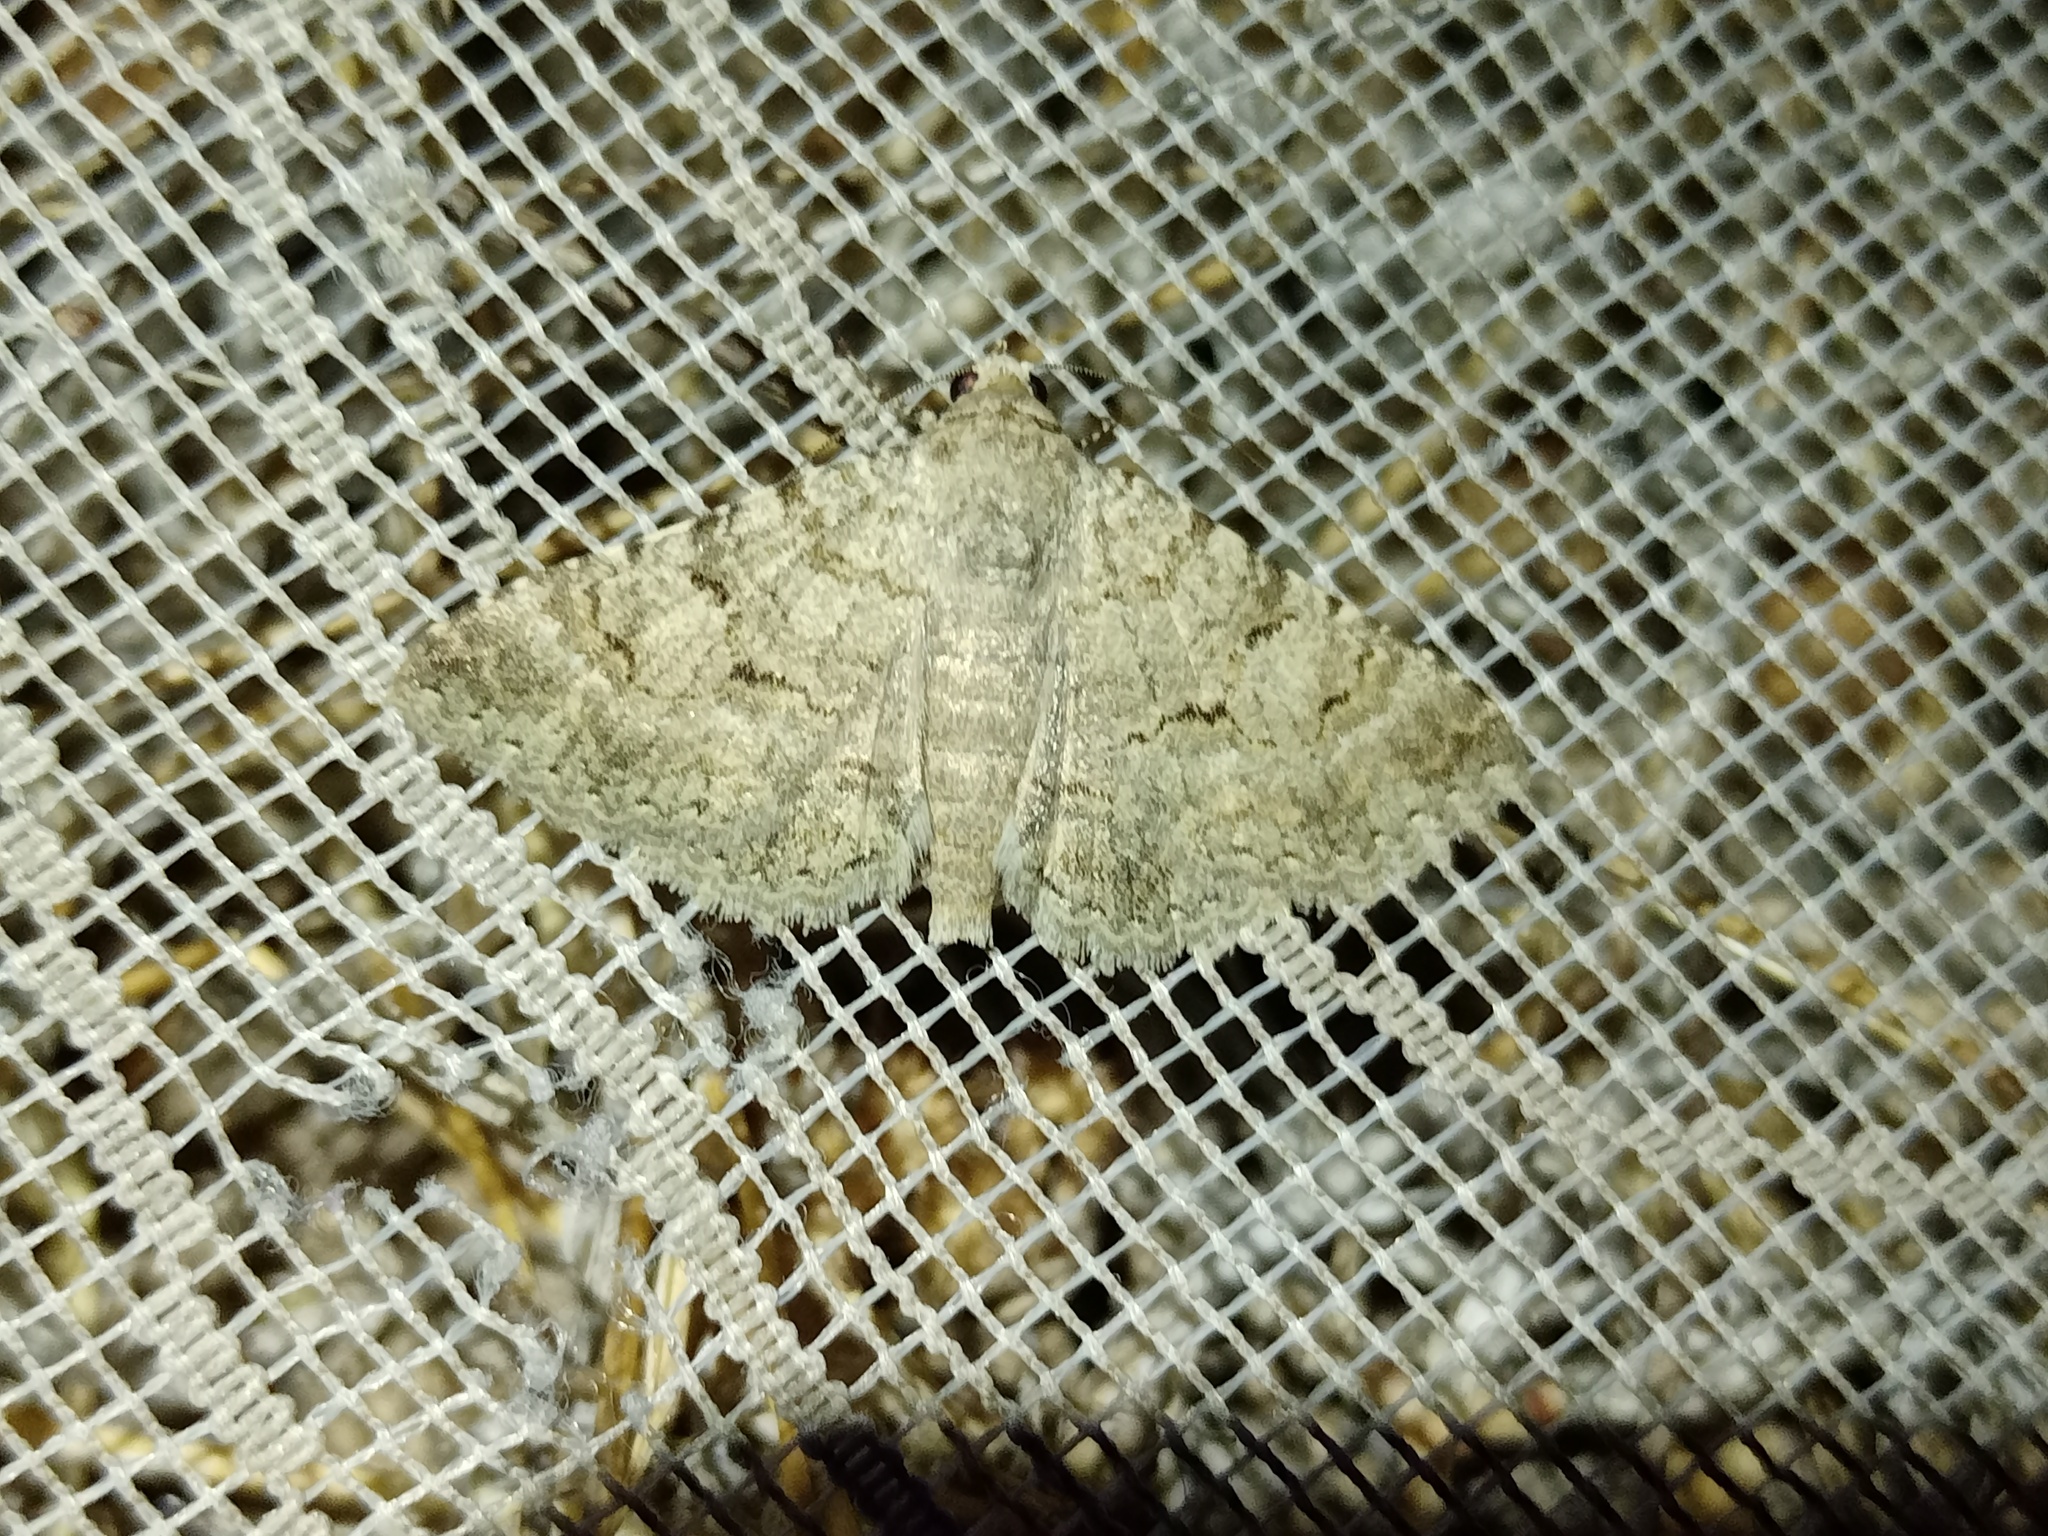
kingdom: Animalia
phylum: Arthropoda
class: Insecta
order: Lepidoptera
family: Erebidae
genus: Heteropalpia
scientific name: Heteropalpia profesta
